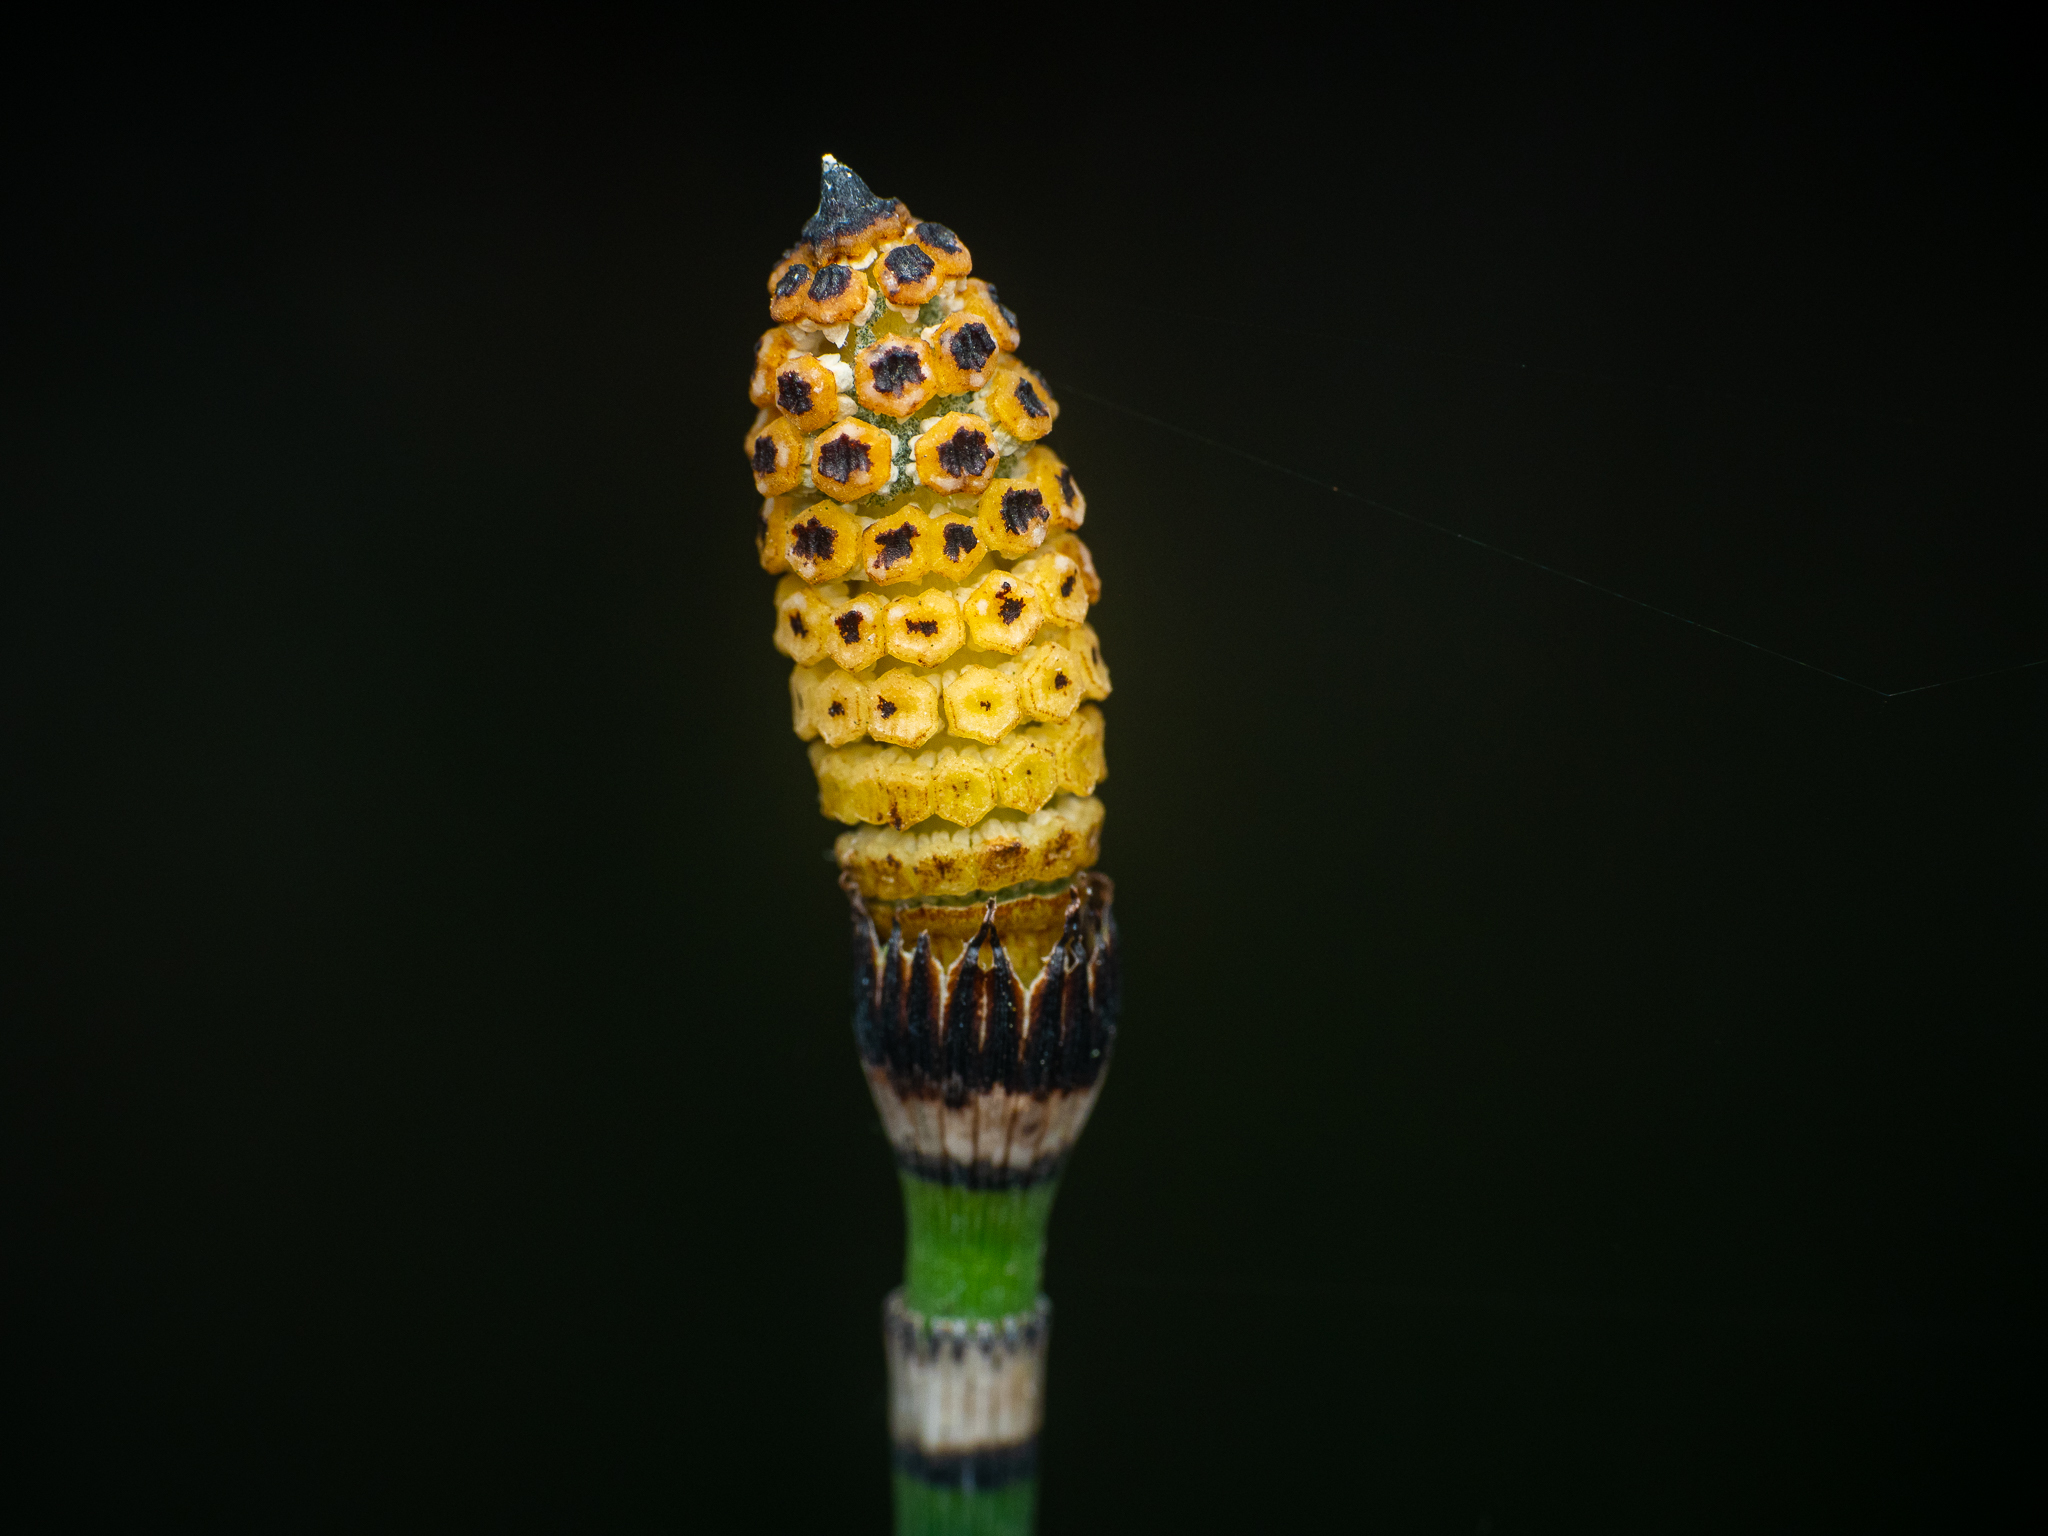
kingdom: Plantae
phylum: Tracheophyta
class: Polypodiopsida
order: Equisetales
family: Equisetaceae
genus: Equisetum
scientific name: Equisetum hyemale
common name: Rough horsetail
